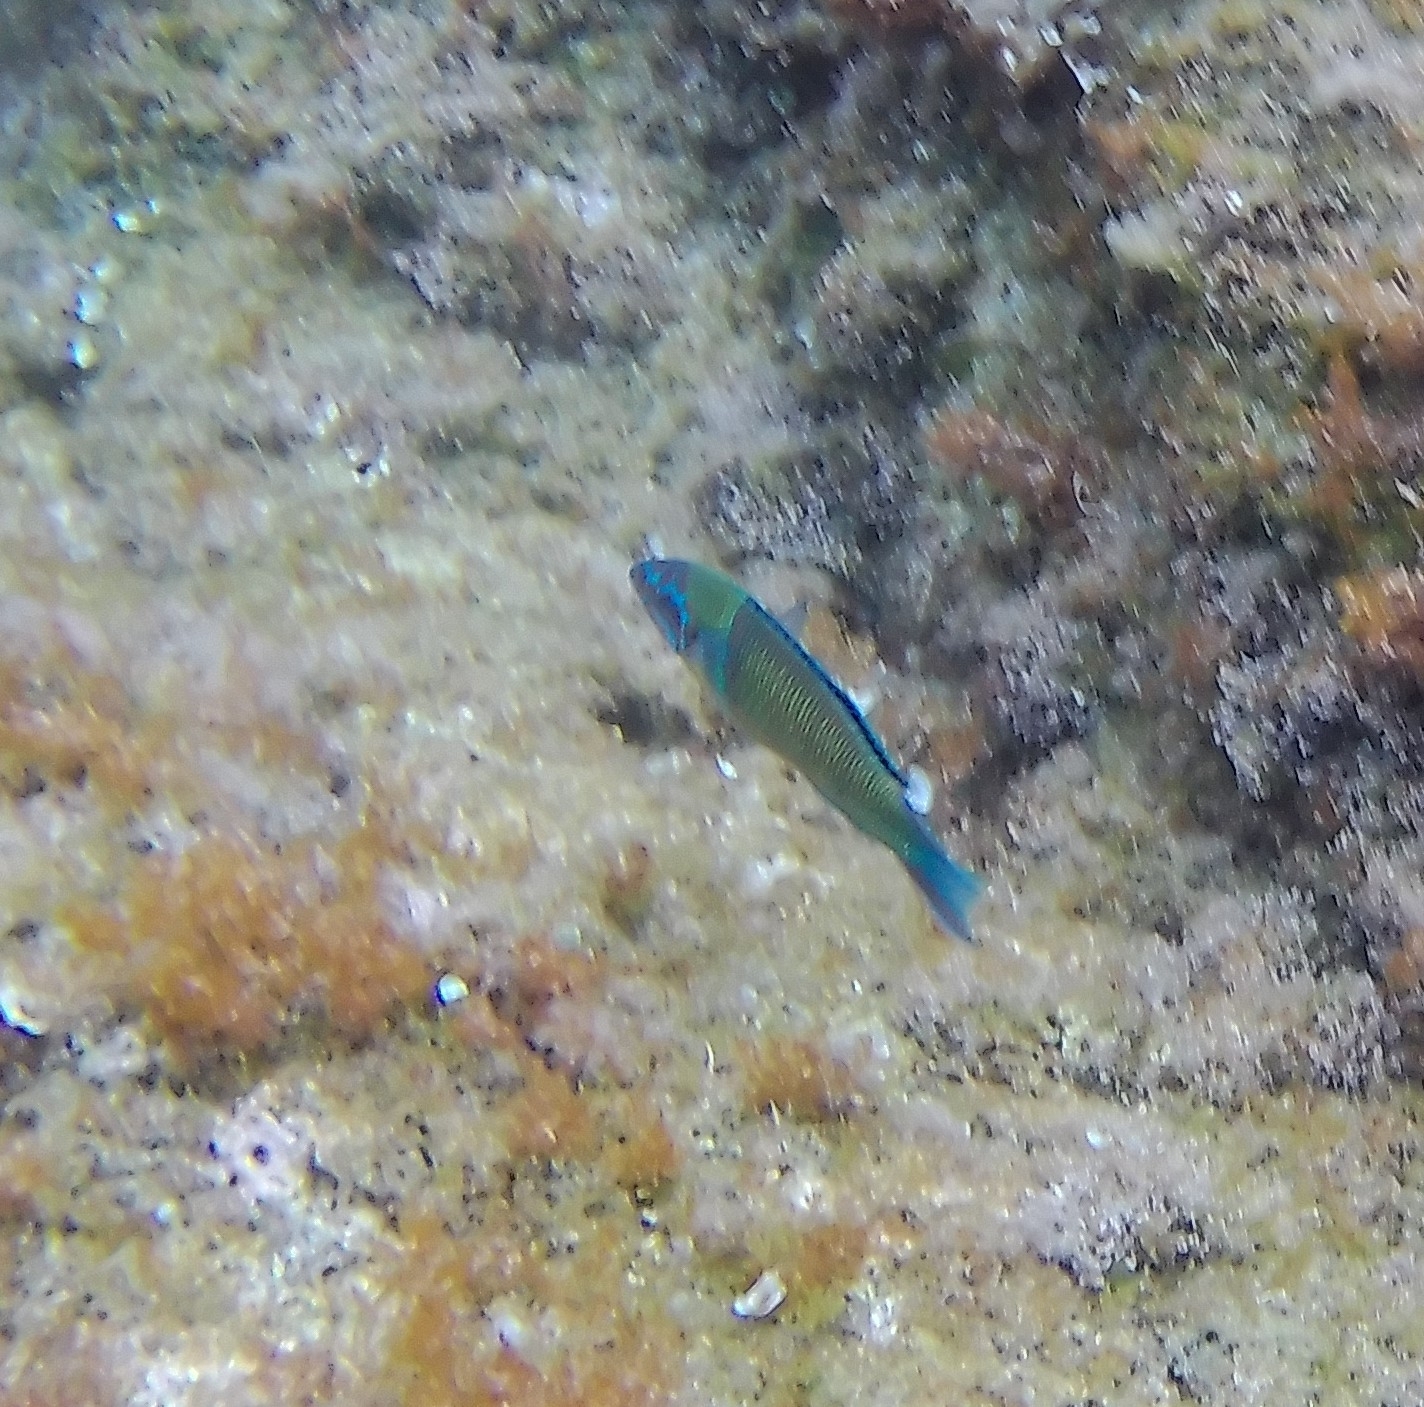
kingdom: Animalia
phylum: Chordata
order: Perciformes
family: Labridae
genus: Thalassoma
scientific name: Thalassoma pavo
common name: Ornate wrasse
